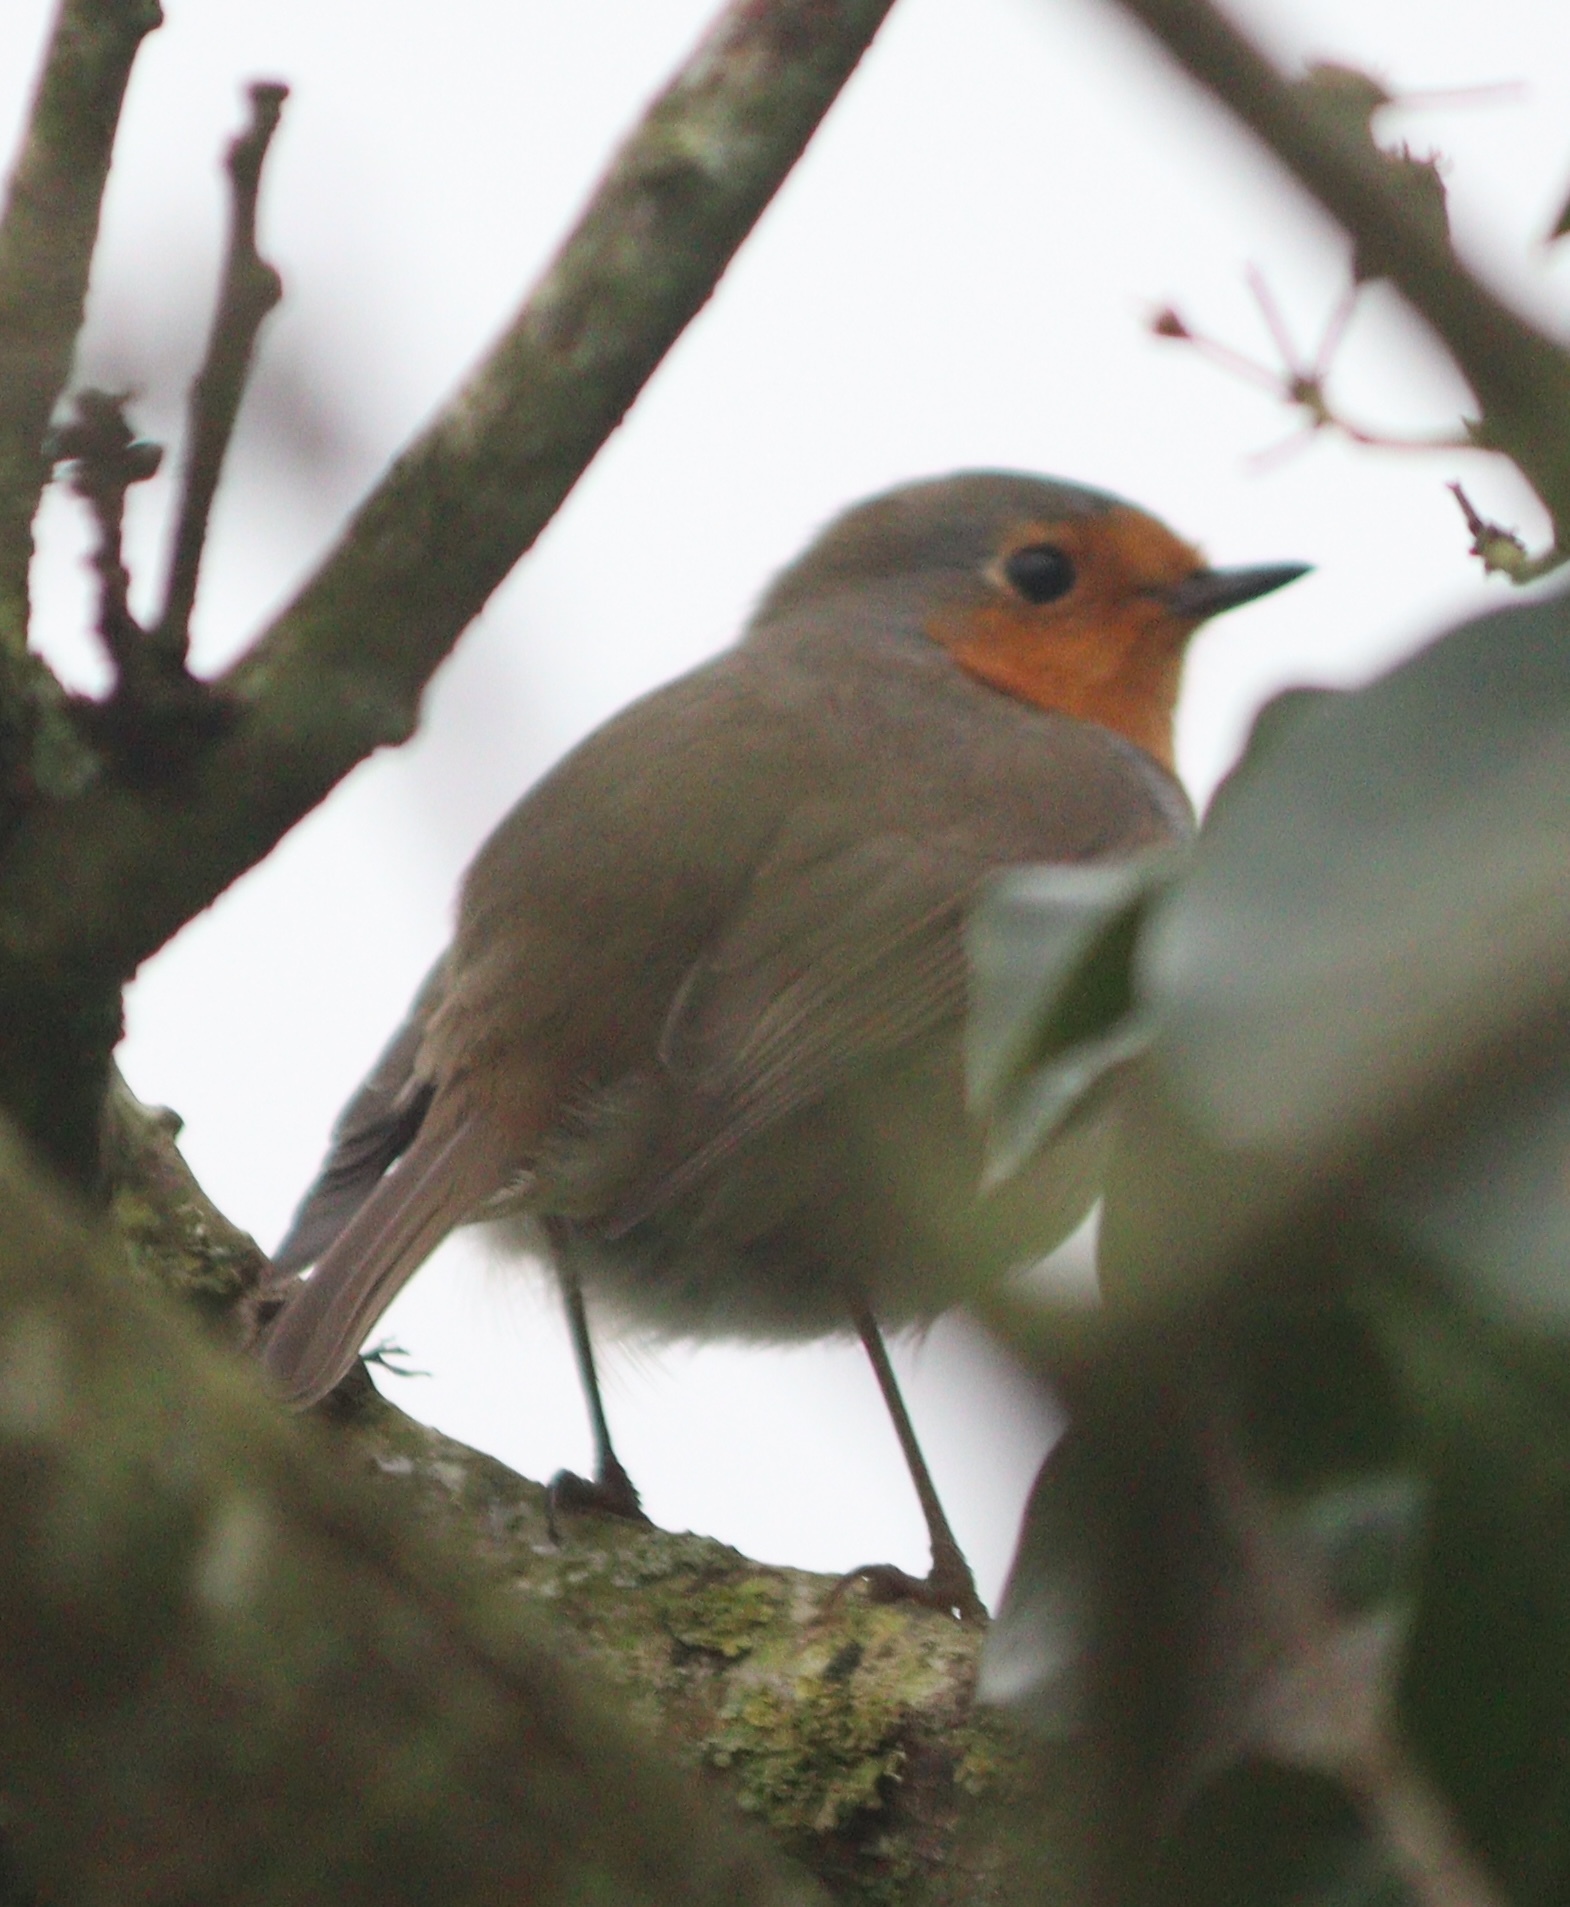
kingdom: Animalia
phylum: Chordata
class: Aves
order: Passeriformes
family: Muscicapidae
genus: Erithacus
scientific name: Erithacus rubecula
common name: European robin
